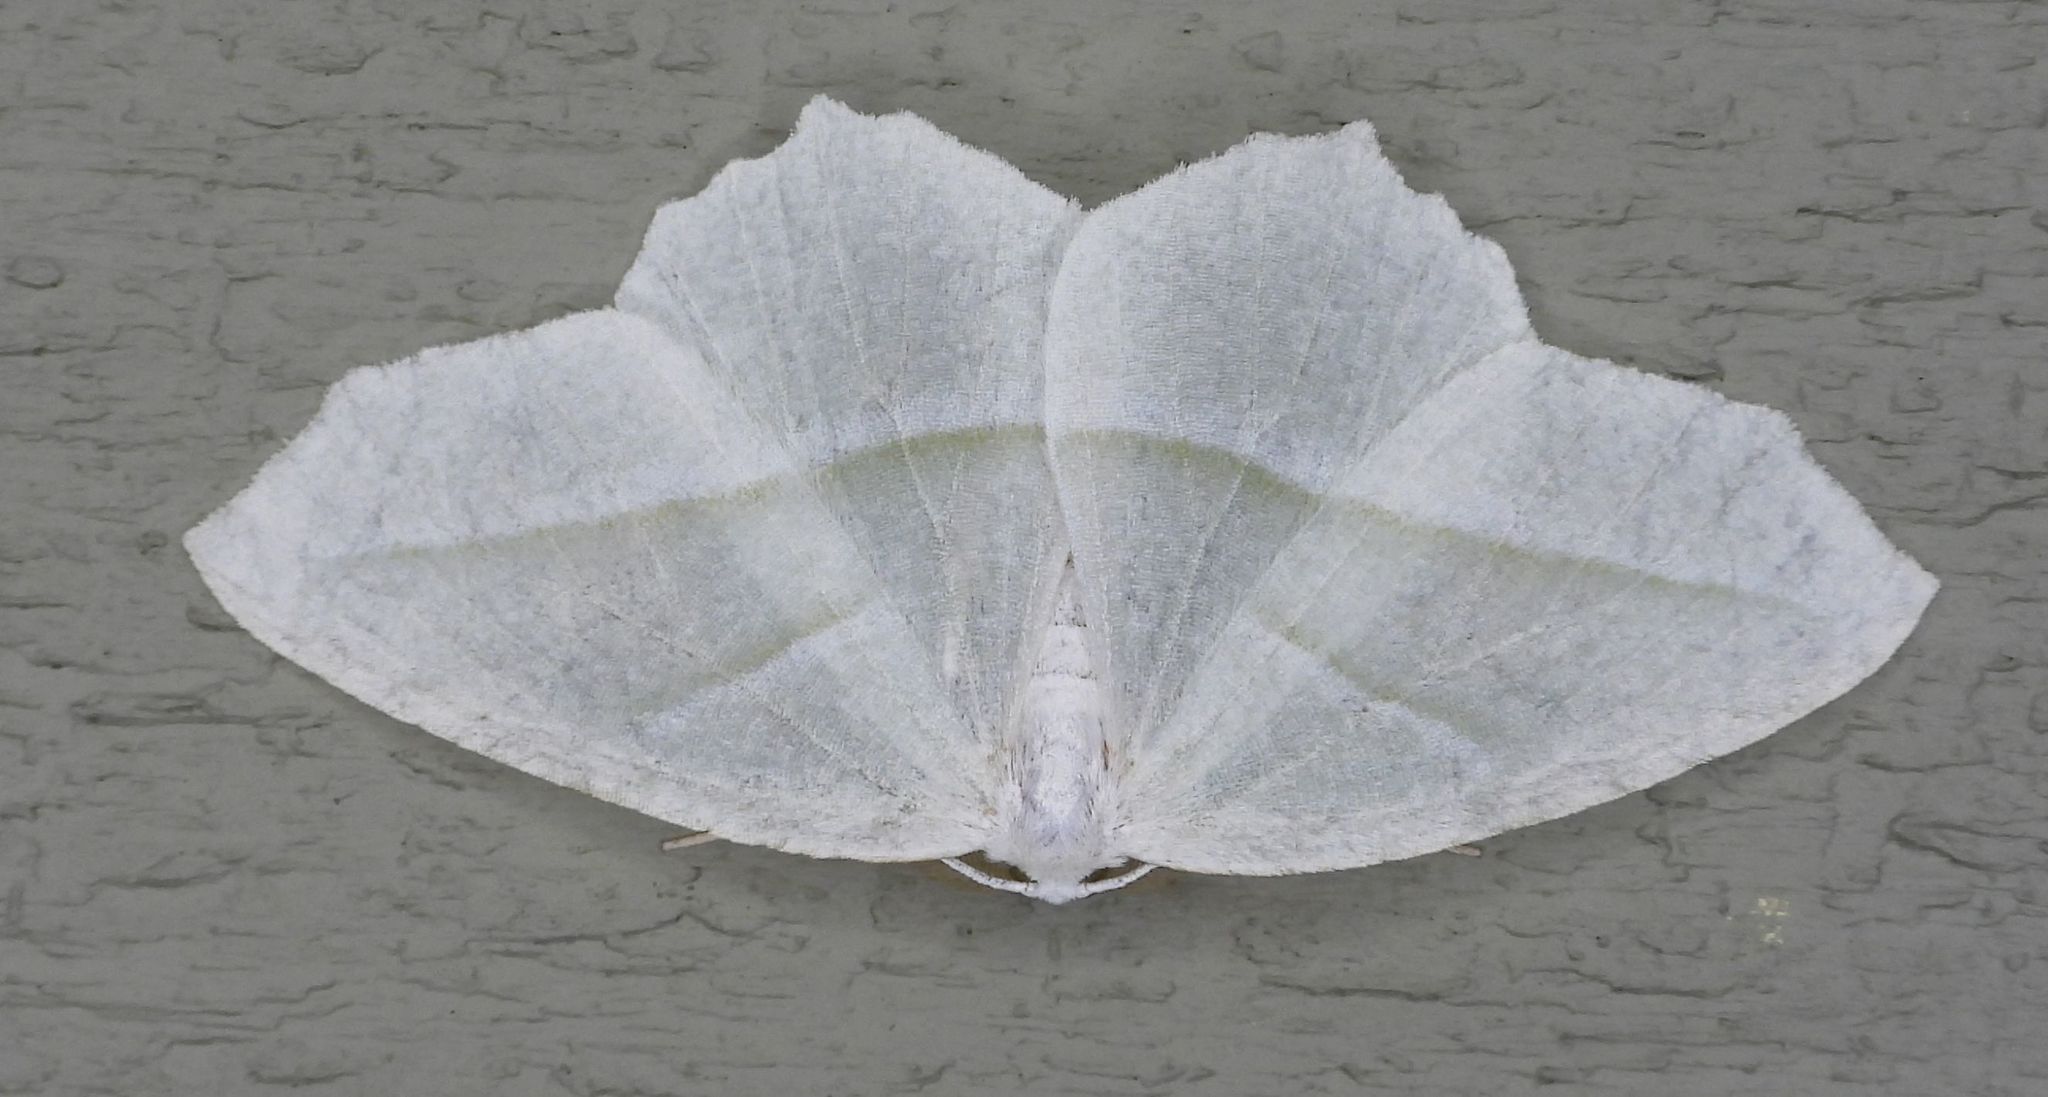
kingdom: Animalia
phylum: Arthropoda
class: Insecta
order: Lepidoptera
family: Geometridae
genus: Campaea
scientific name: Campaea perlata
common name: Fringed looper
